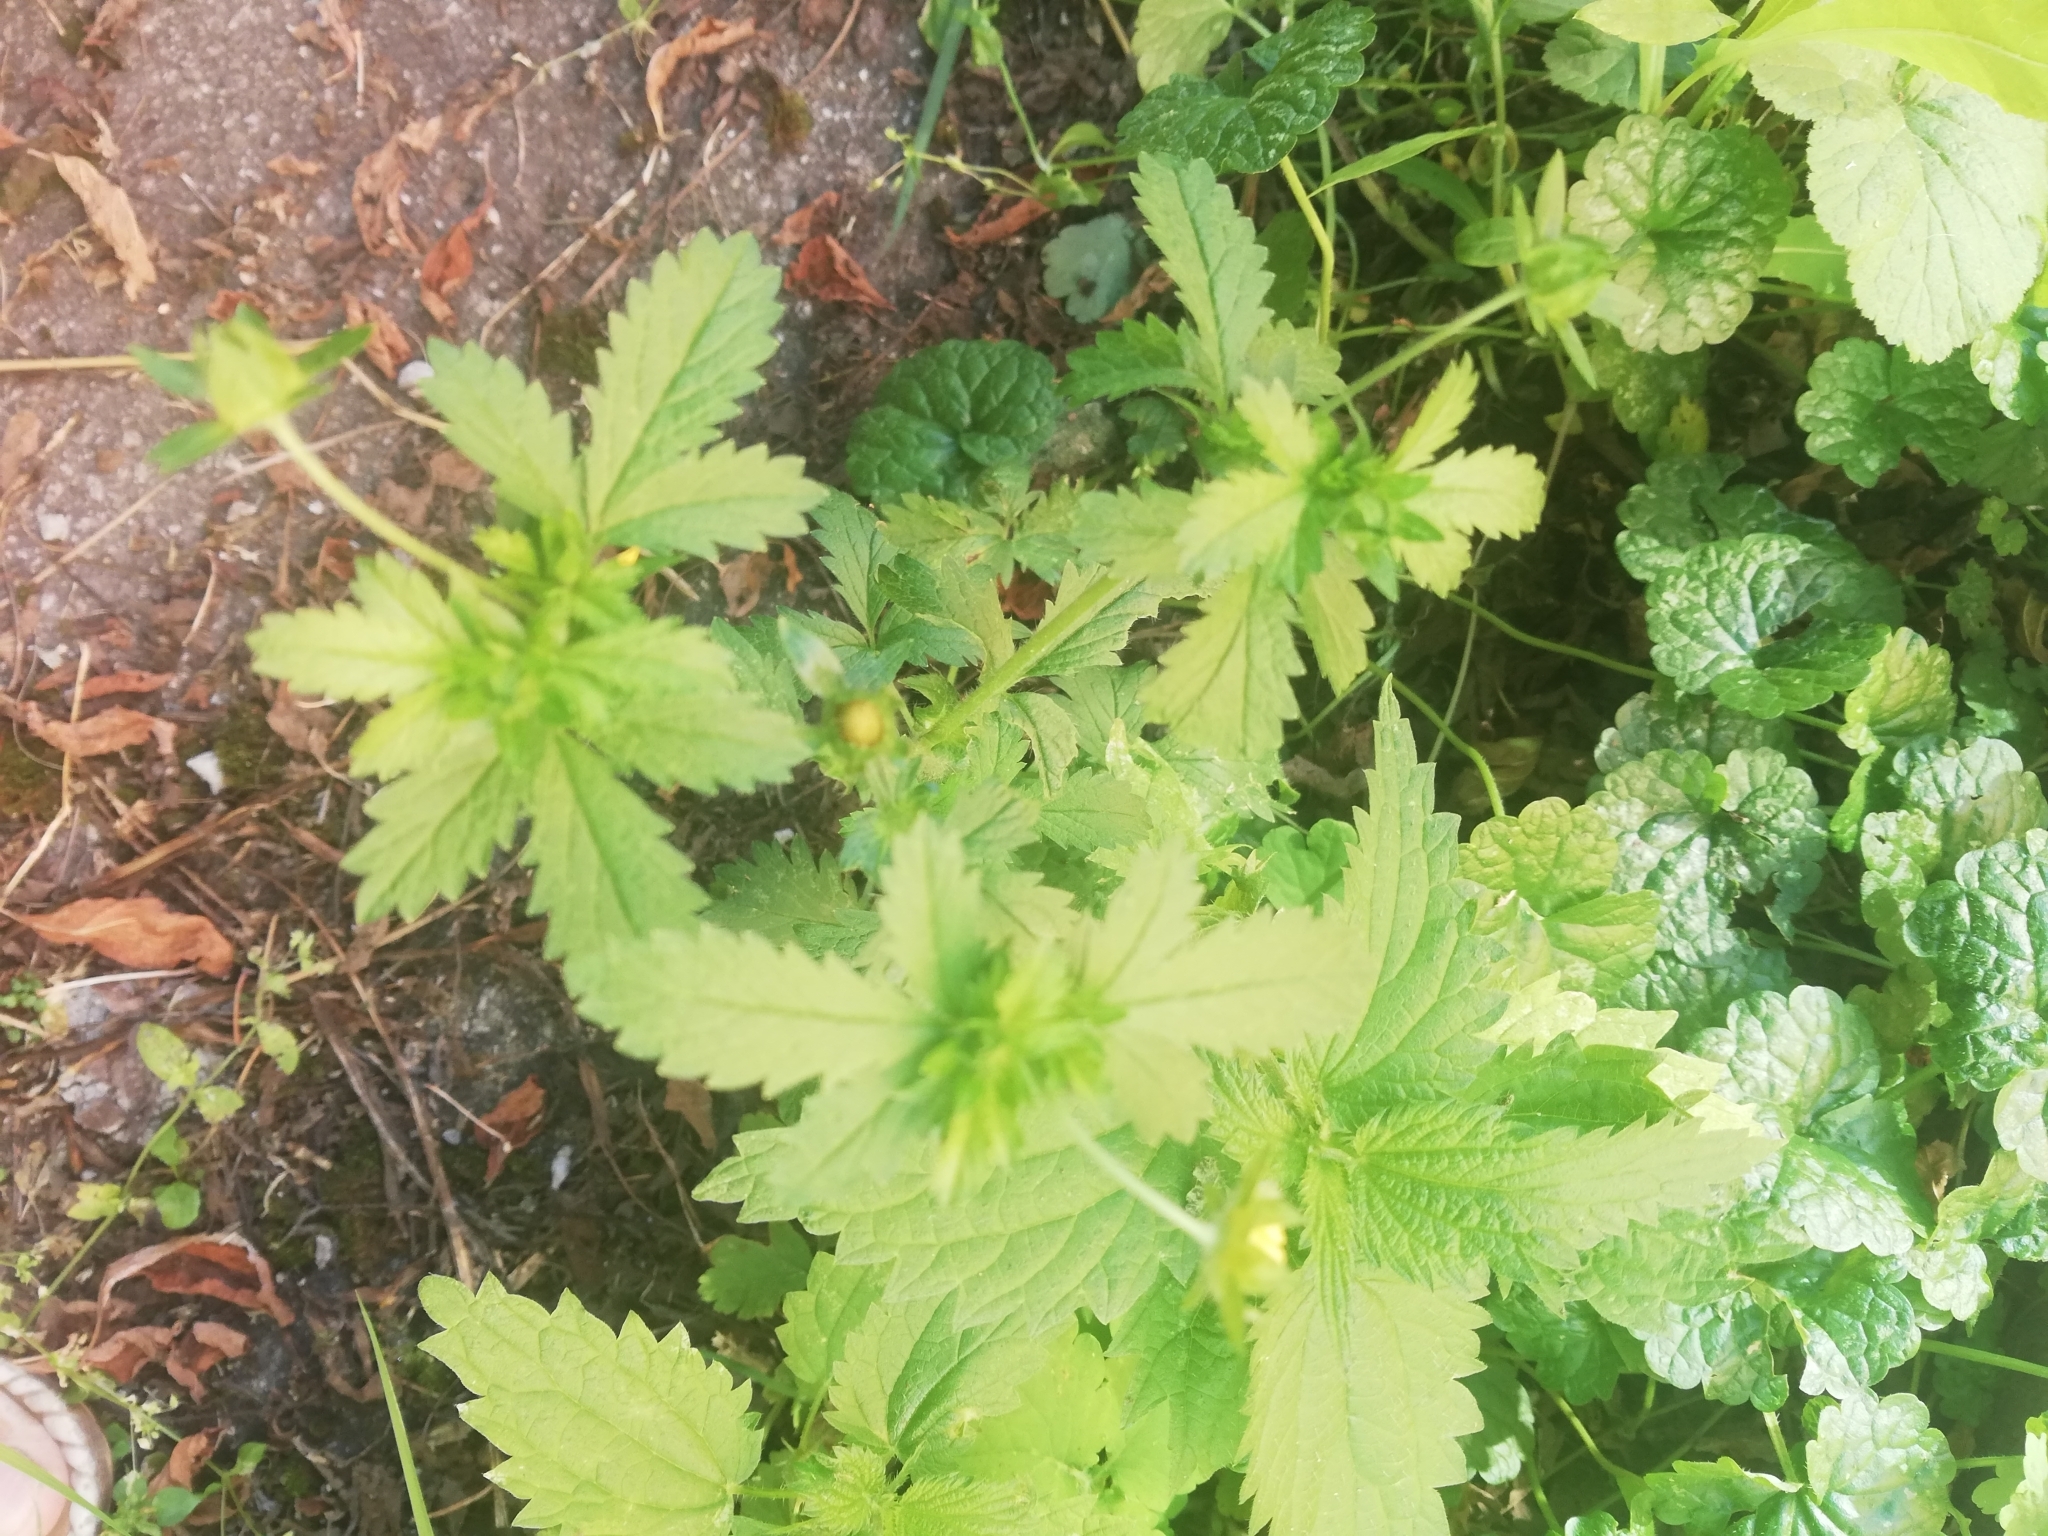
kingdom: Plantae
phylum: Tracheophyta
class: Magnoliopsida
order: Rosales
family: Rosaceae
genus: Potentilla
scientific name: Potentilla norvegica
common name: Ternate-leaved cinquefoil
